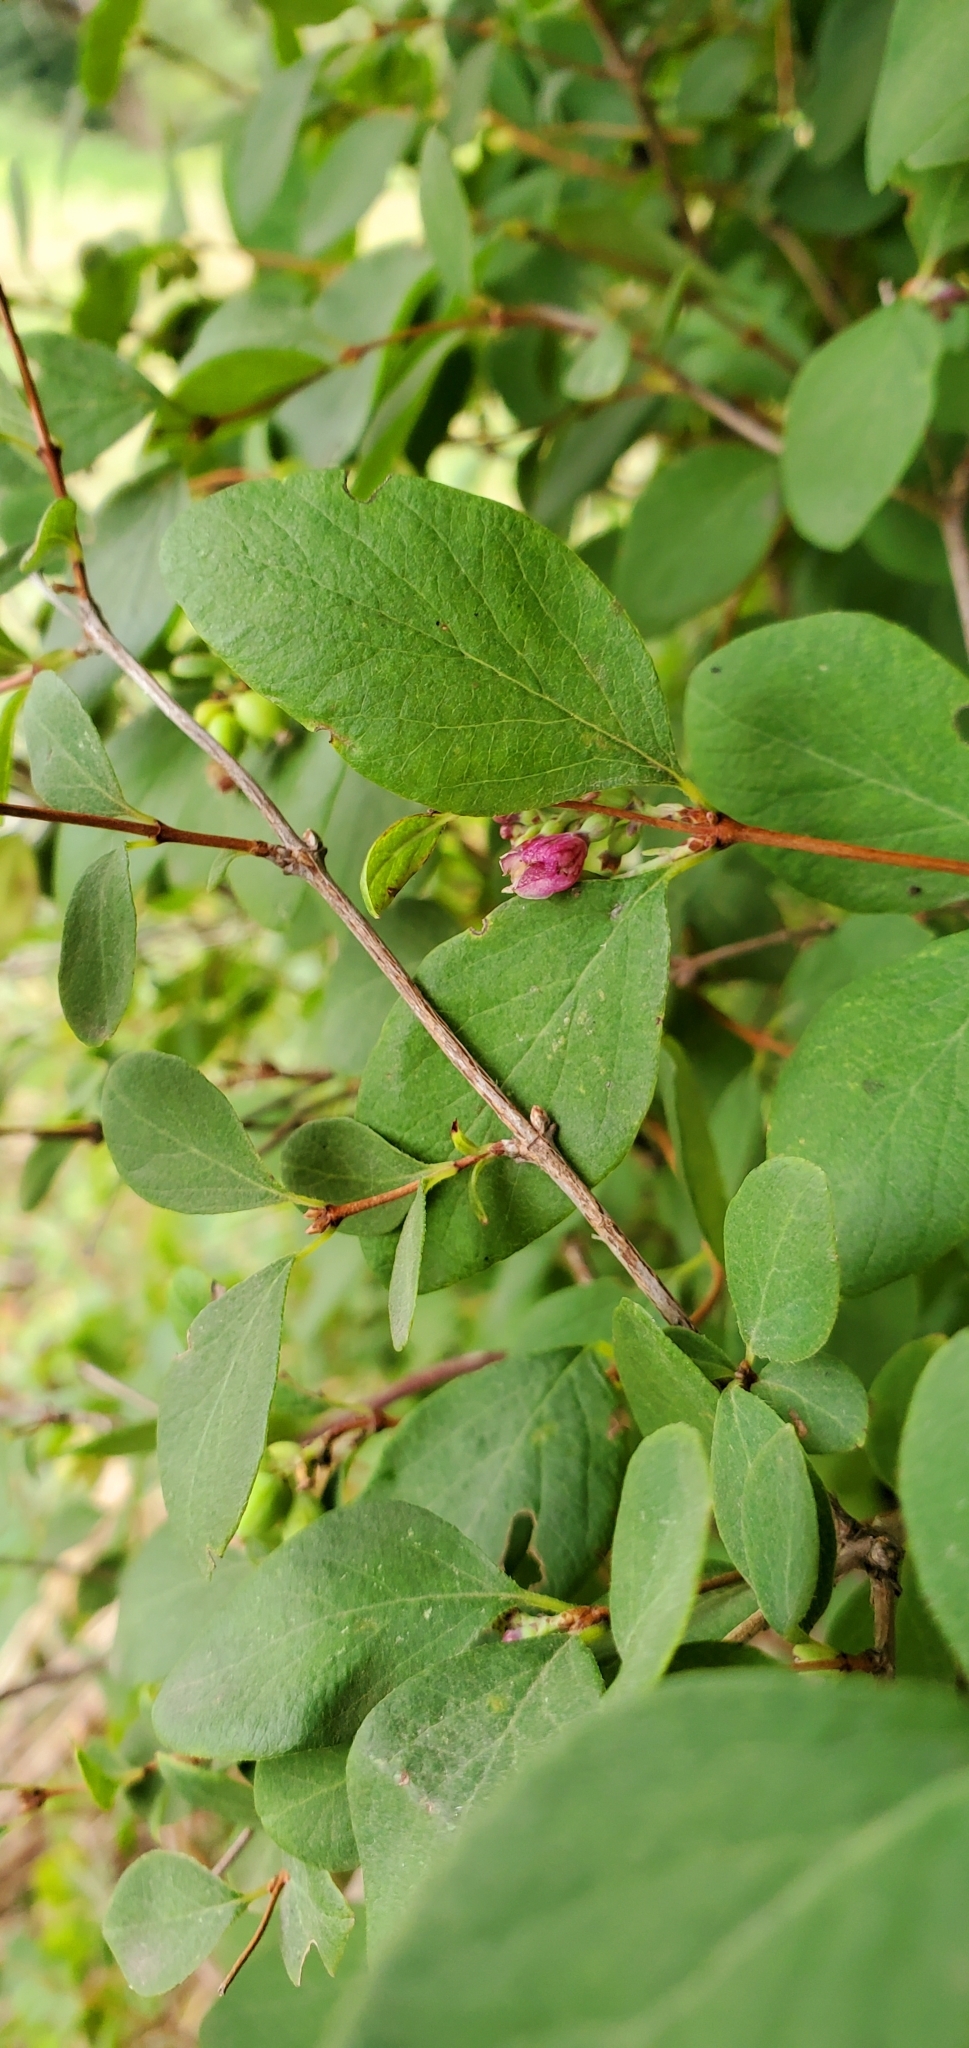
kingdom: Plantae
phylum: Tracheophyta
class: Magnoliopsida
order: Dipsacales
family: Caprifoliaceae
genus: Symphoricarpos
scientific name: Symphoricarpos albus
